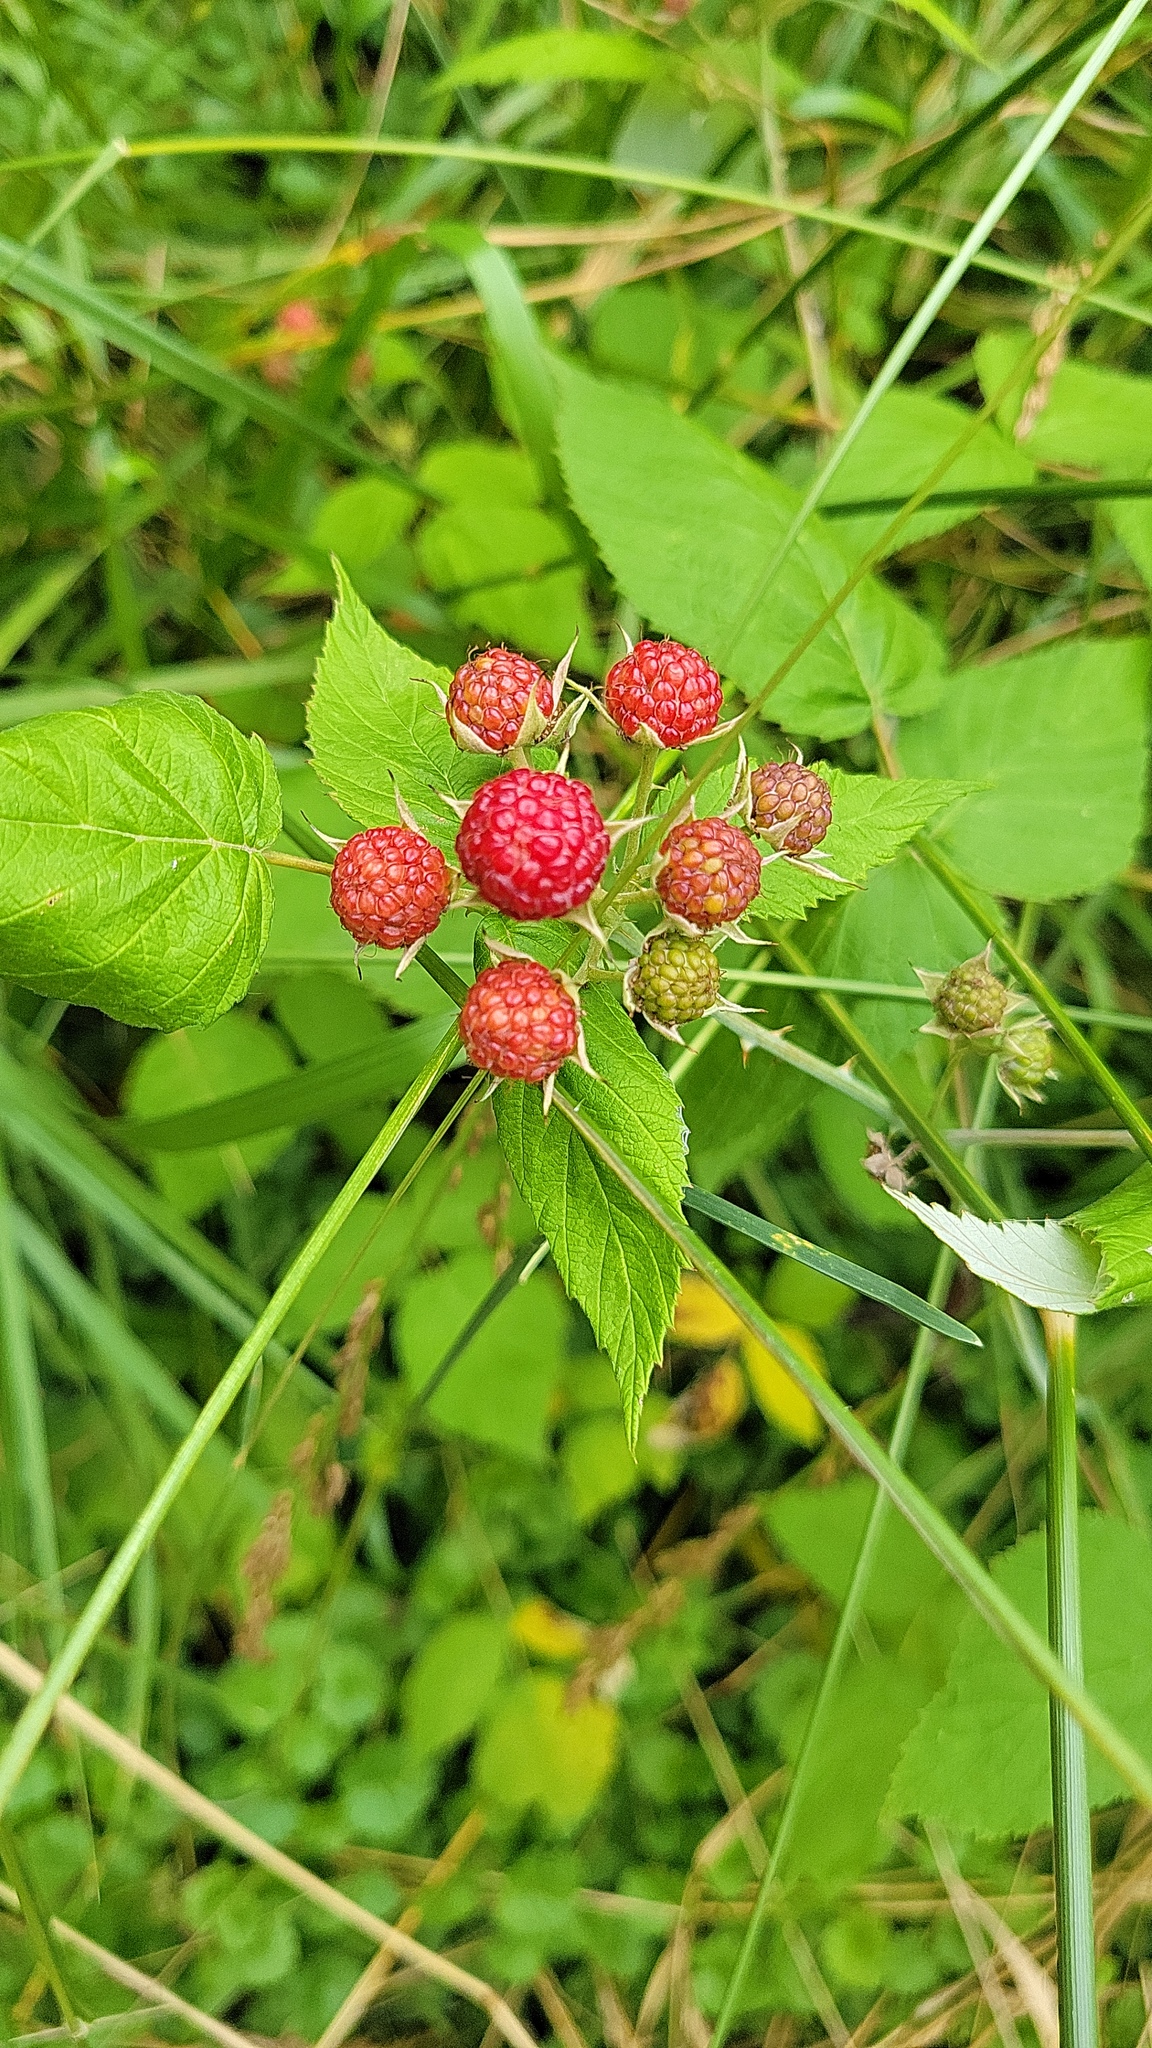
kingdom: Plantae
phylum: Tracheophyta
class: Magnoliopsida
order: Rosales
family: Rosaceae
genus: Rubus
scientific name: Rubus occidentalis
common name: Black raspberry
